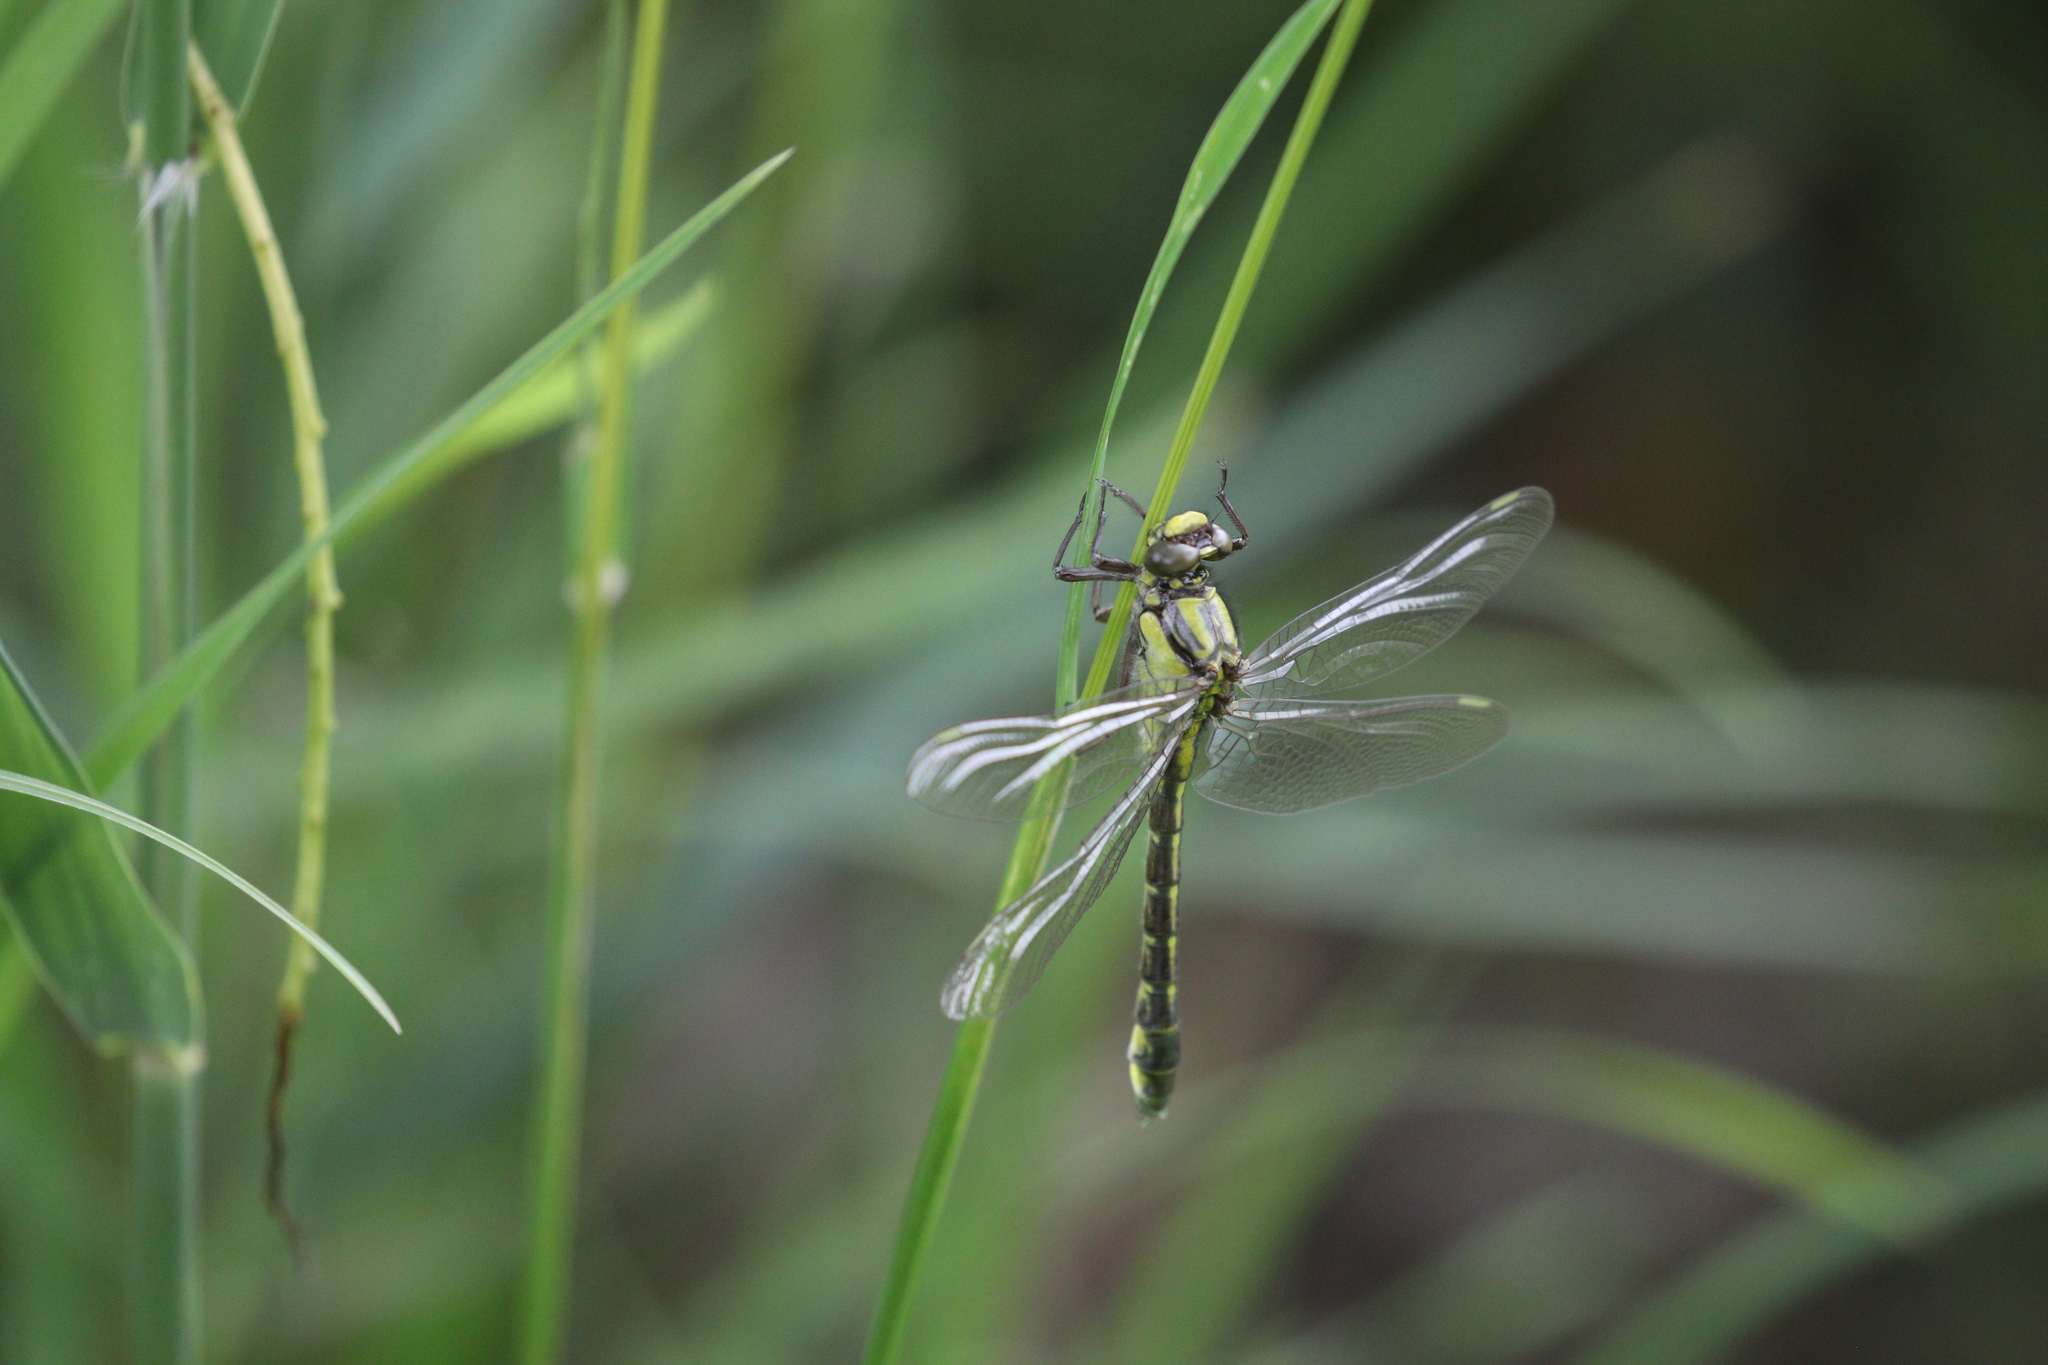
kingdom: Animalia
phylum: Arthropoda
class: Insecta
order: Odonata
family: Gomphidae
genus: Gomphus
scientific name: Gomphus vulgatissimus
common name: Club-tailed dragonfly
